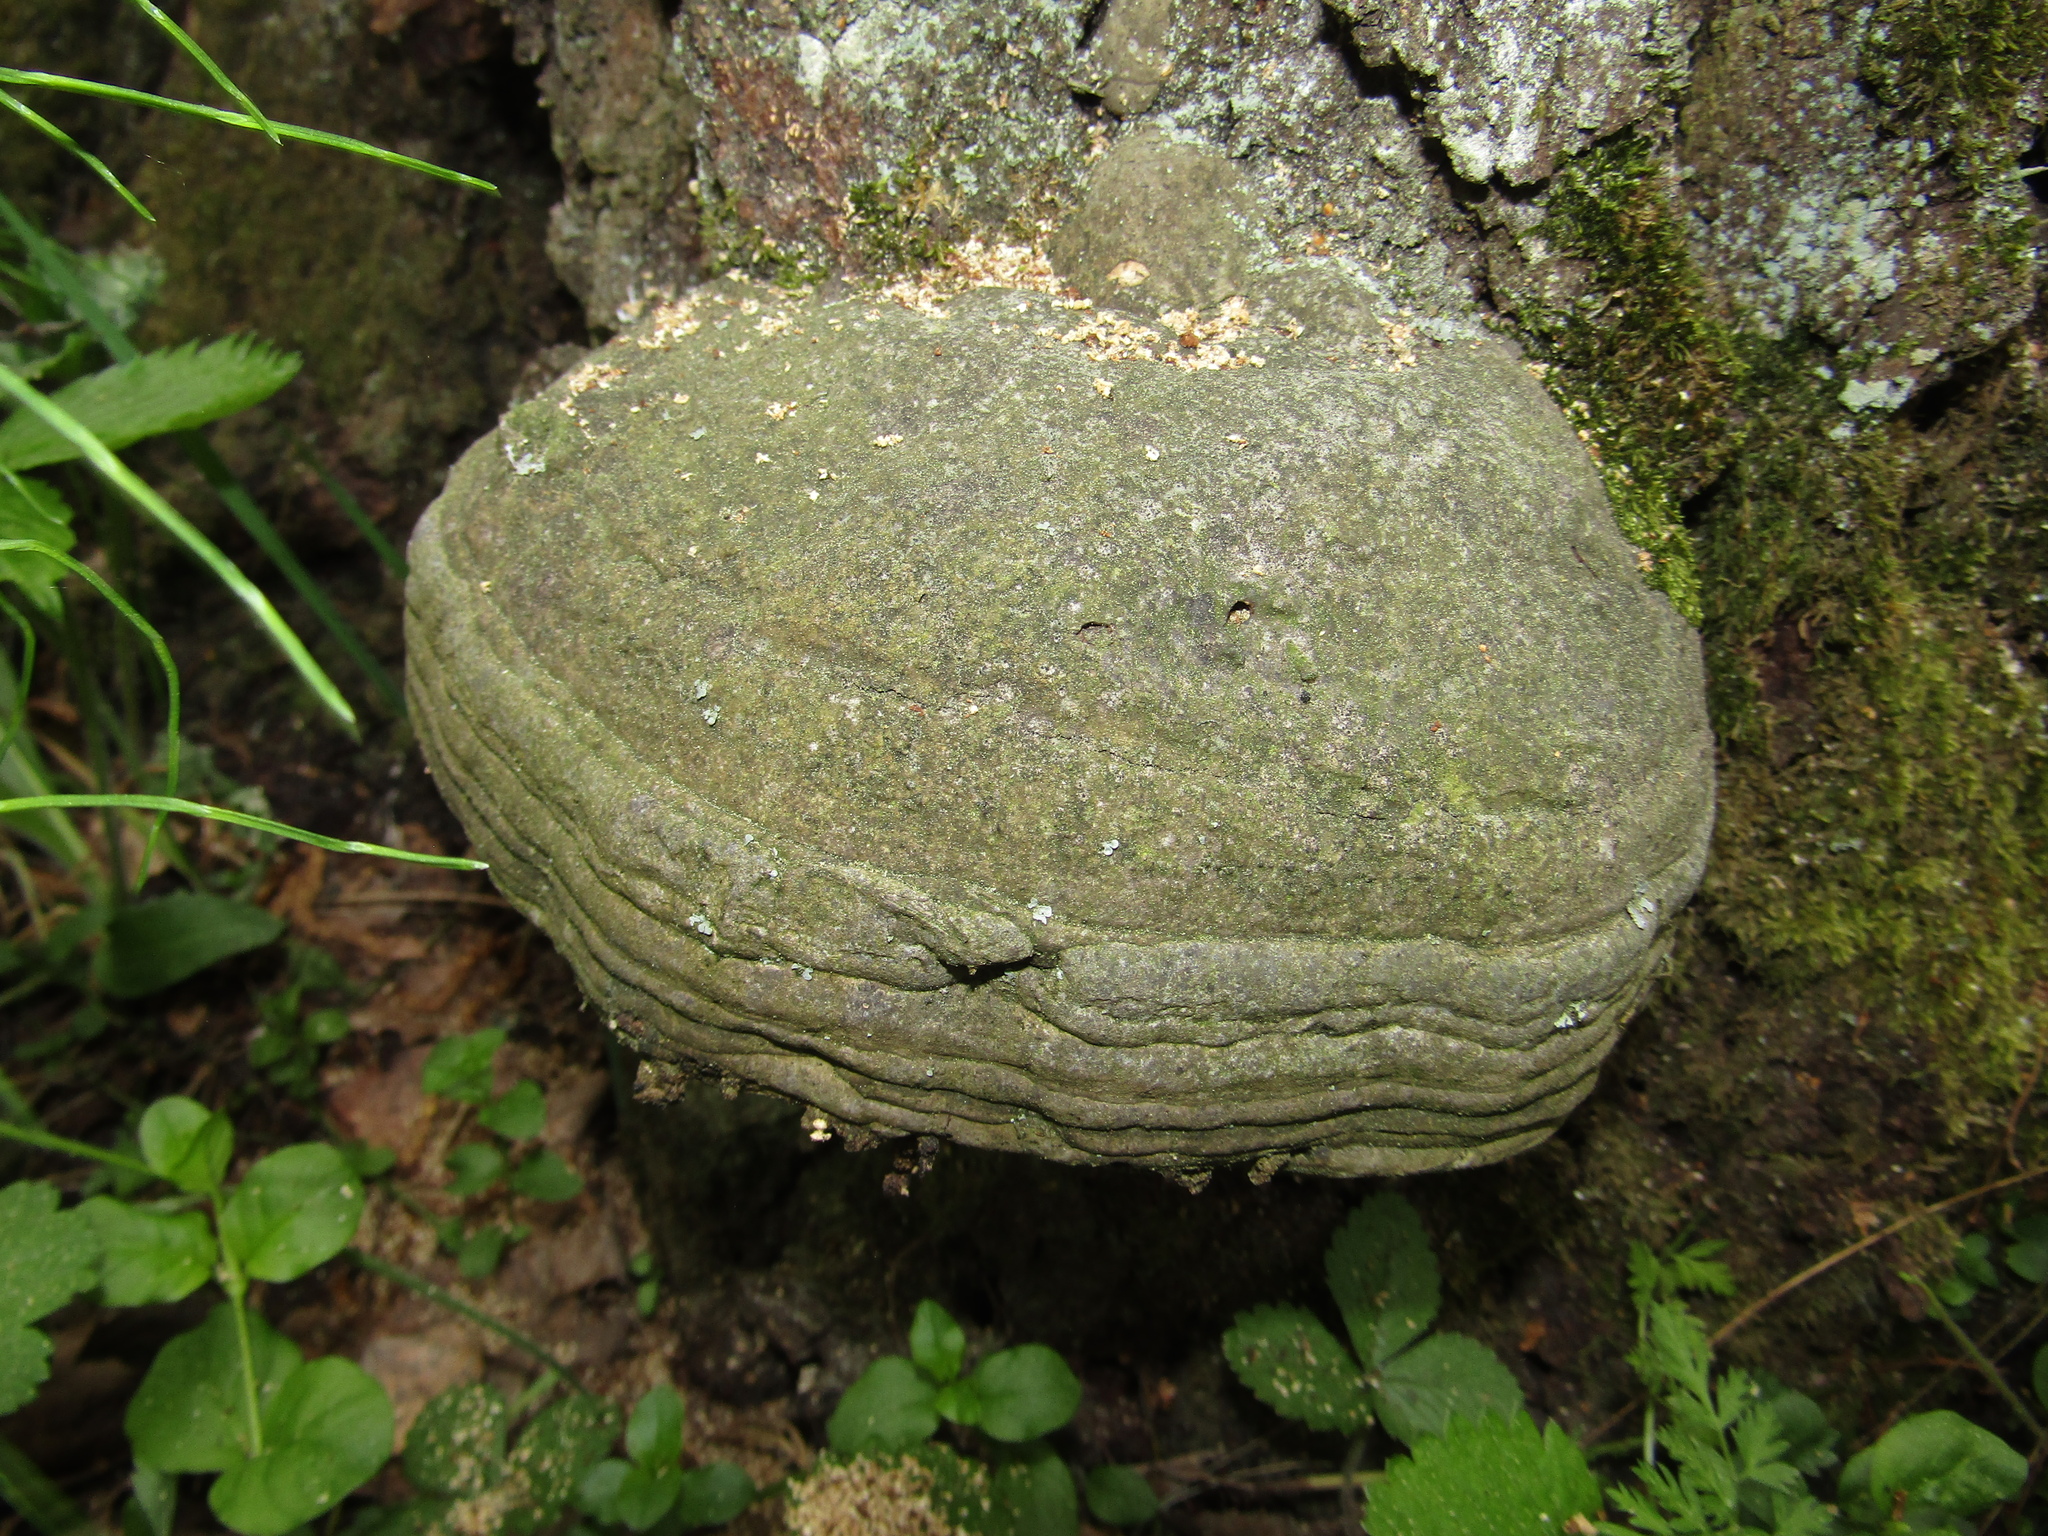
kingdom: Fungi
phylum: Basidiomycota
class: Agaricomycetes
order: Polyporales
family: Polyporaceae
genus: Fomes
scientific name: Fomes fomentarius
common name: Hoof fungus
